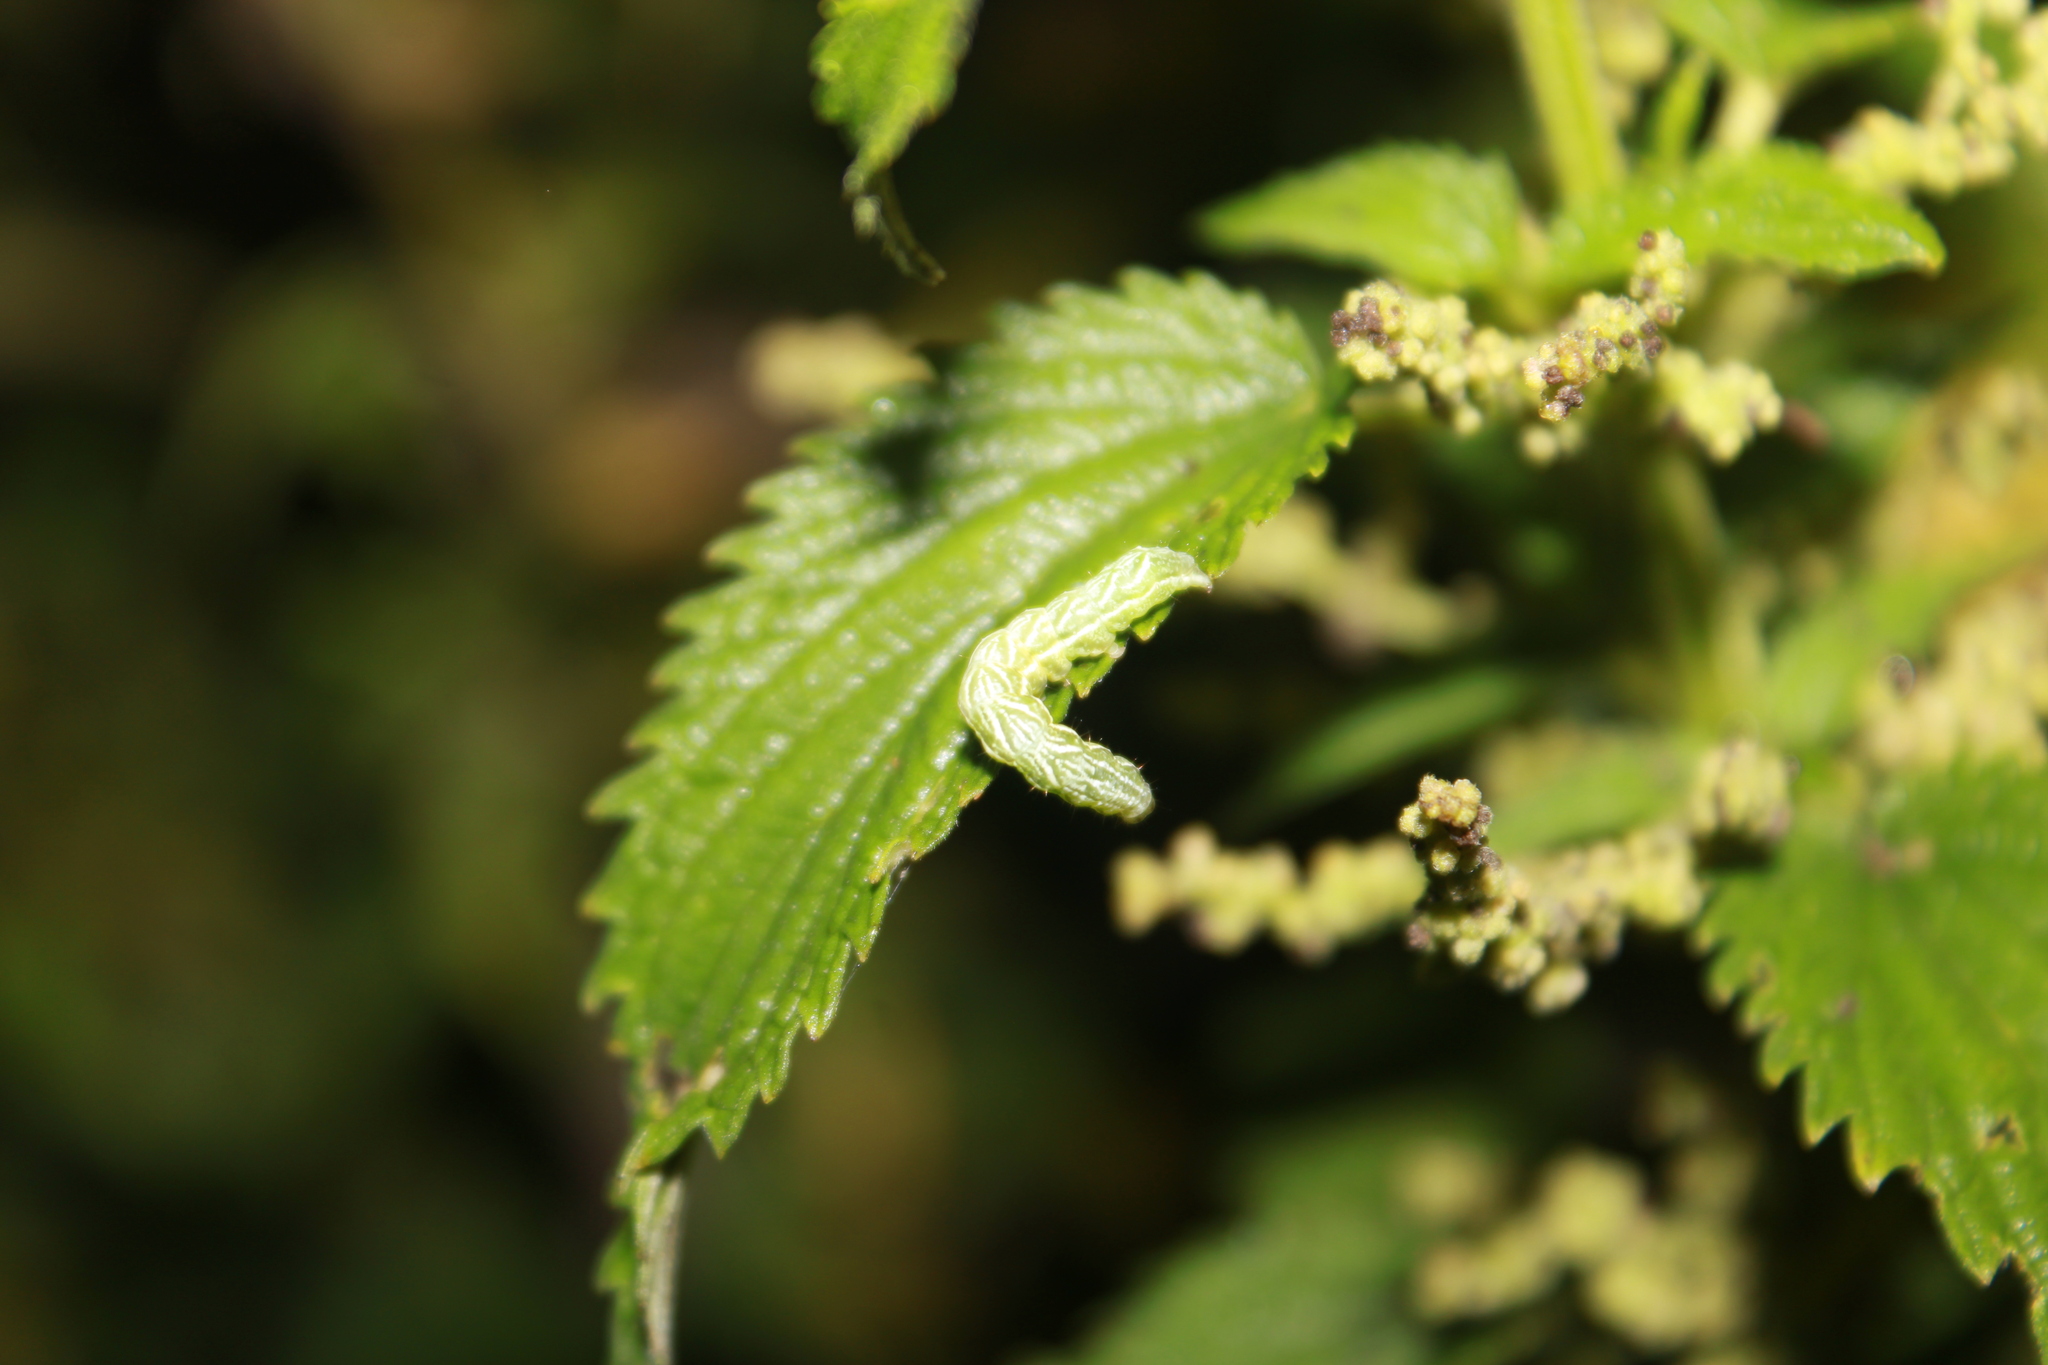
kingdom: Animalia
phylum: Arthropoda
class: Insecta
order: Lepidoptera
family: Noctuidae
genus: Abrostola
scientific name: Abrostola urentis
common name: Spectacled nettle moth
